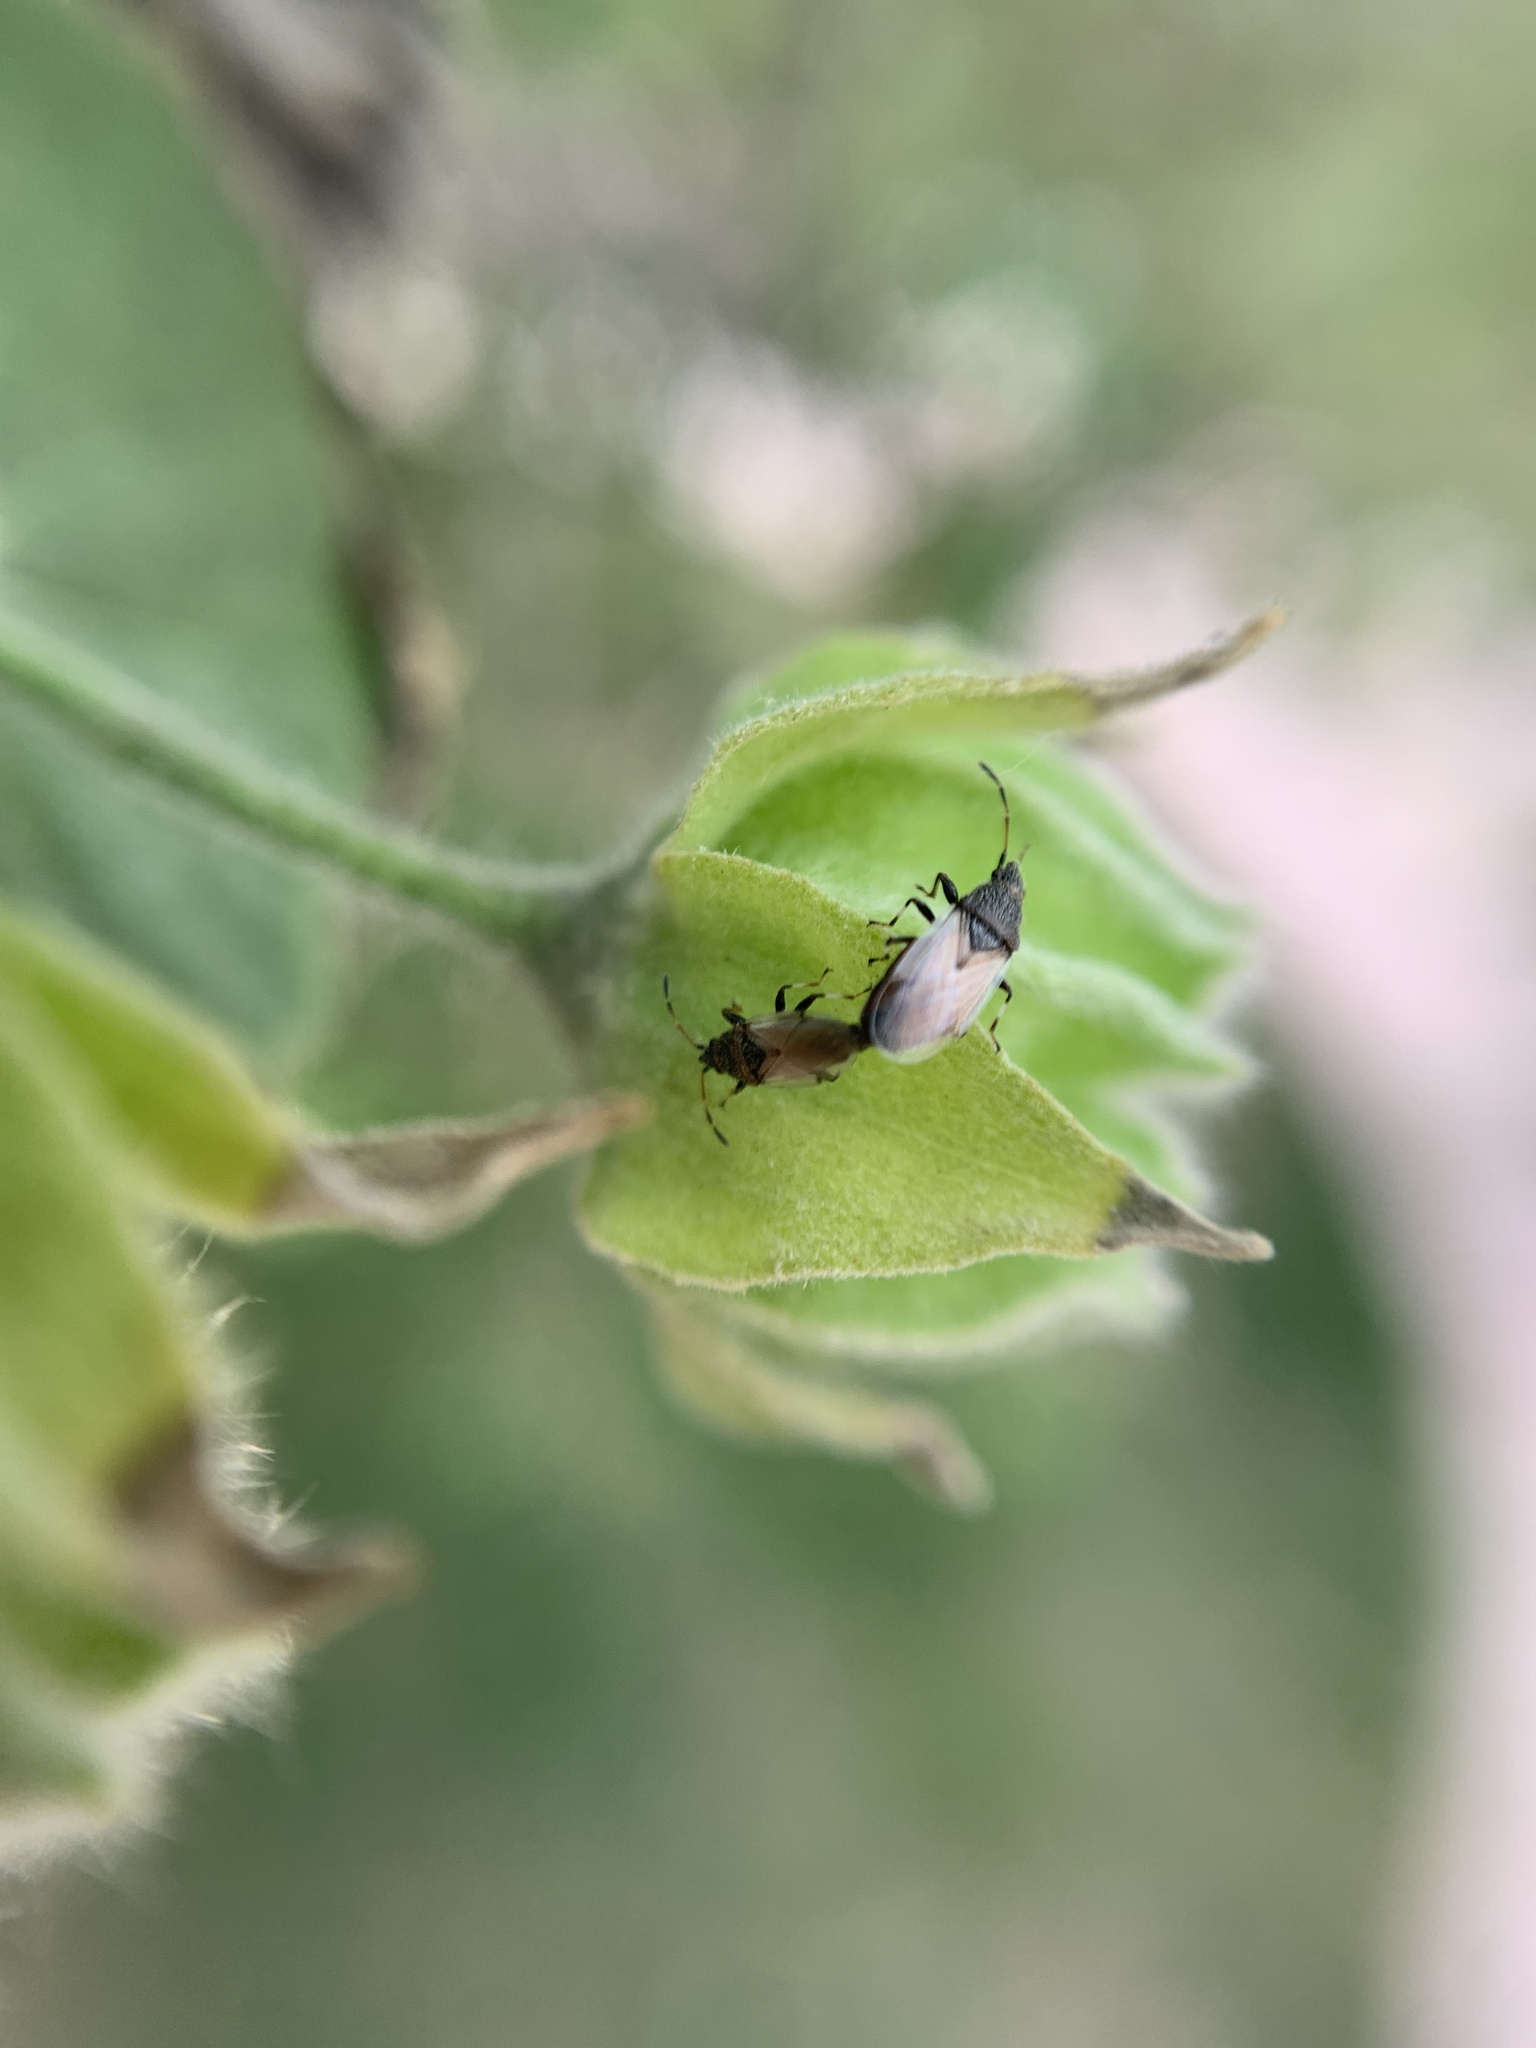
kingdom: Animalia
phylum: Arthropoda
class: Insecta
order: Hemiptera
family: Oxycarenidae
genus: Oxycarenus
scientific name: Oxycarenus hyalinipennis
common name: Cotton seed bug
